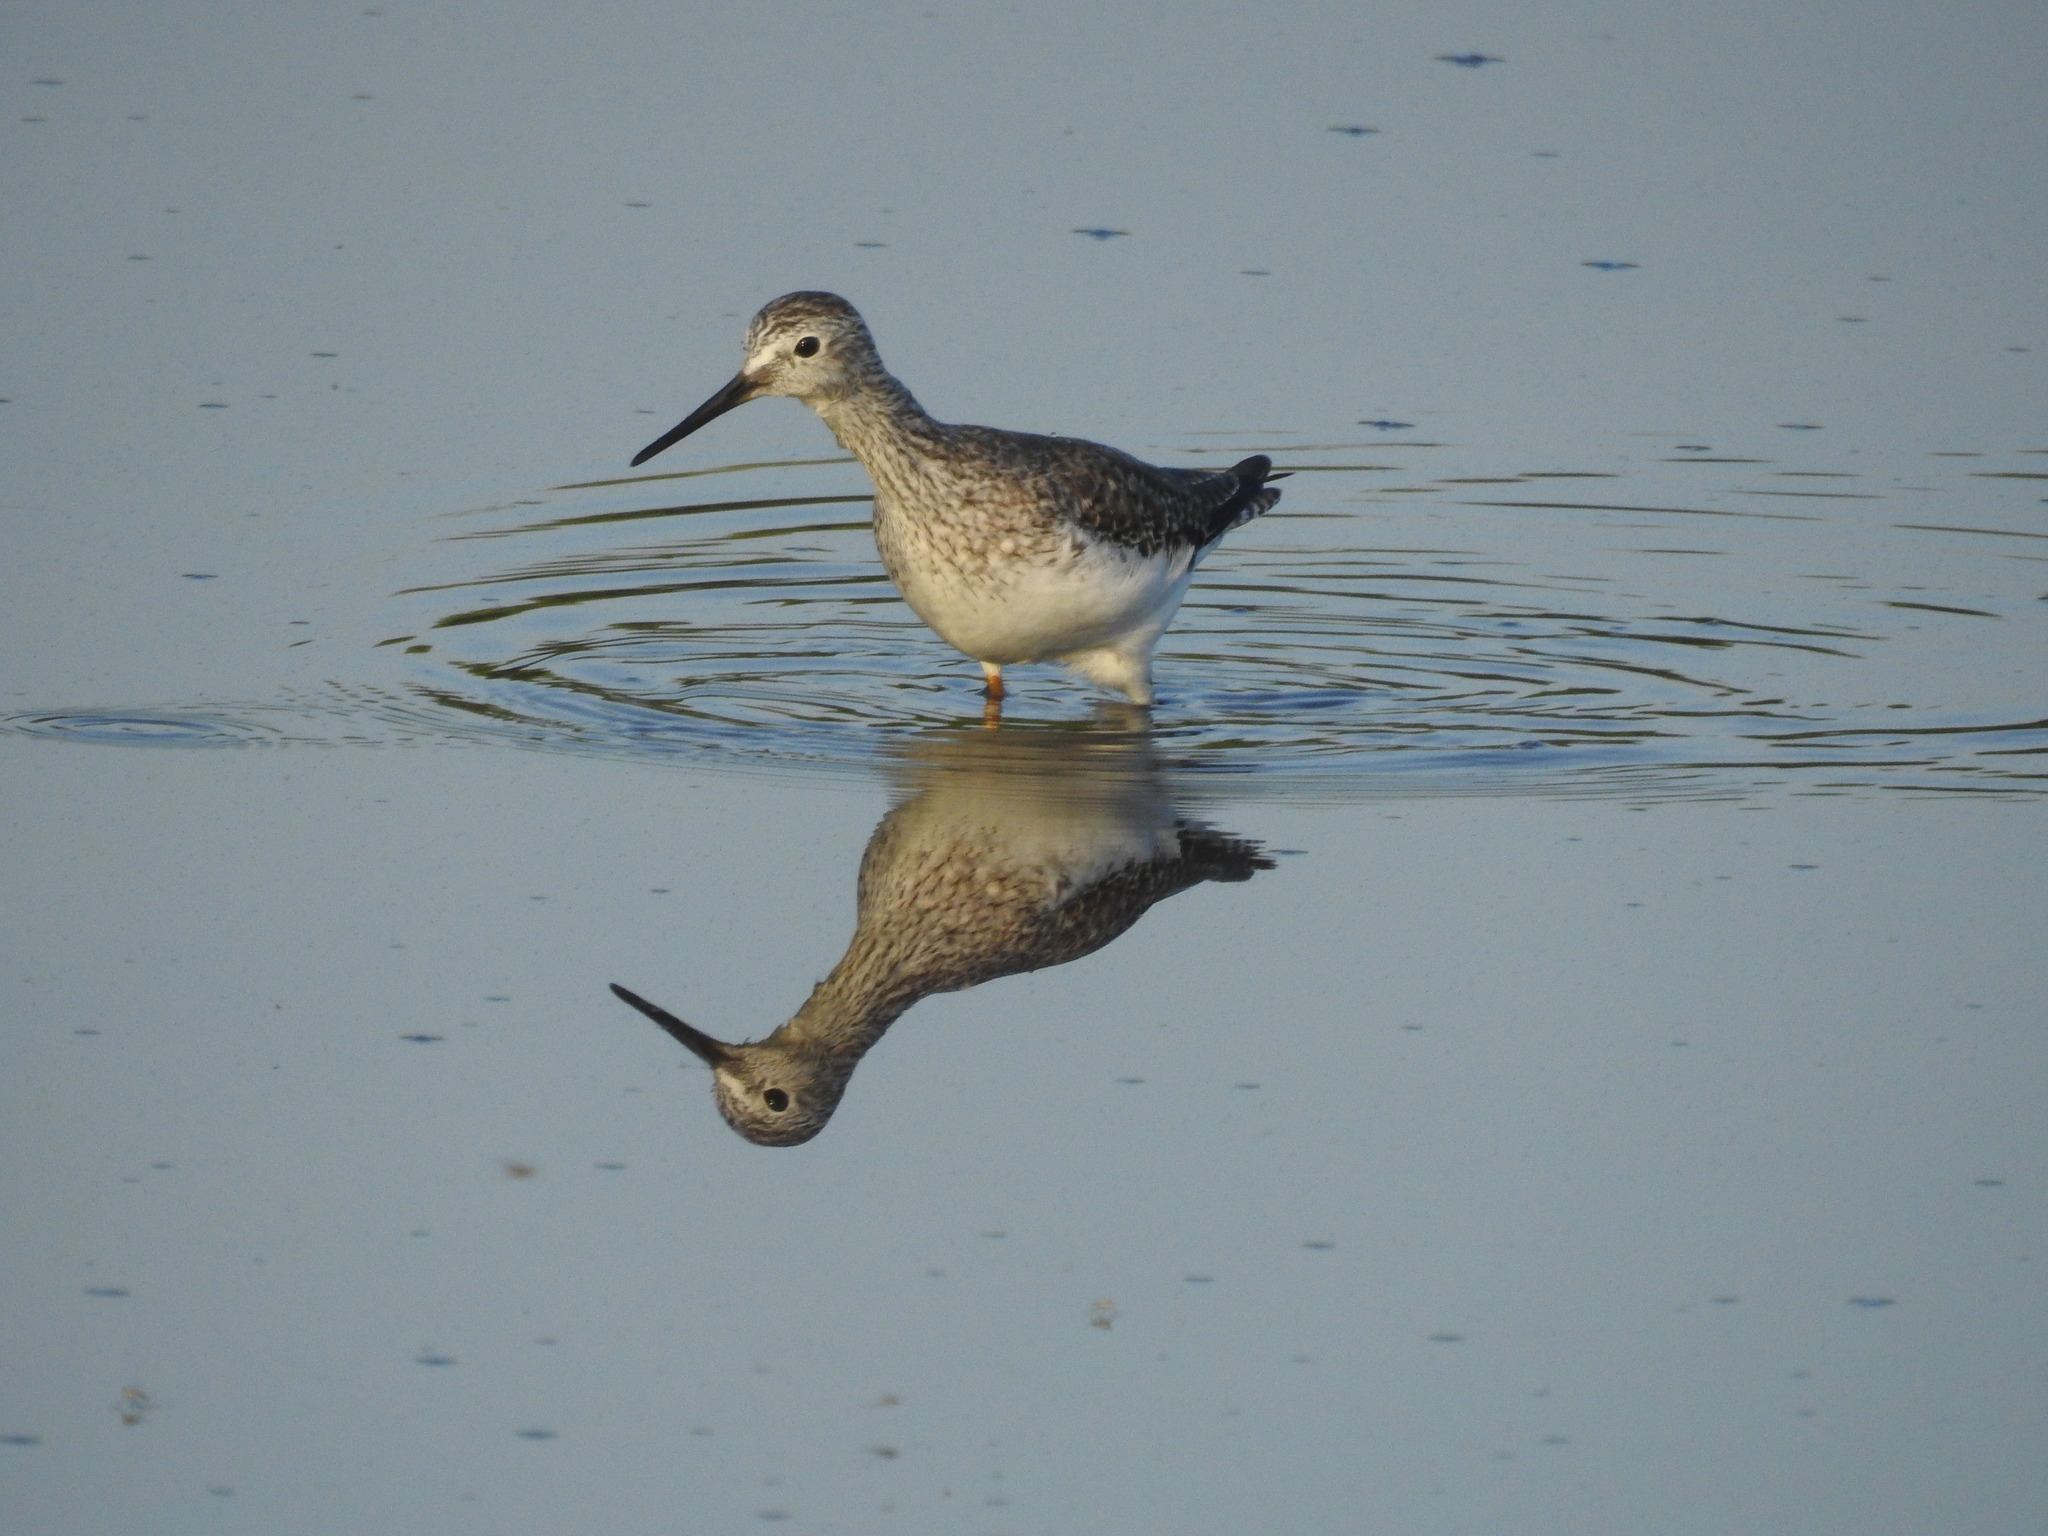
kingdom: Animalia
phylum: Chordata
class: Aves
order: Charadriiformes
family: Scolopacidae
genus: Tringa
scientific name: Tringa flavipes
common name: Lesser yellowlegs
